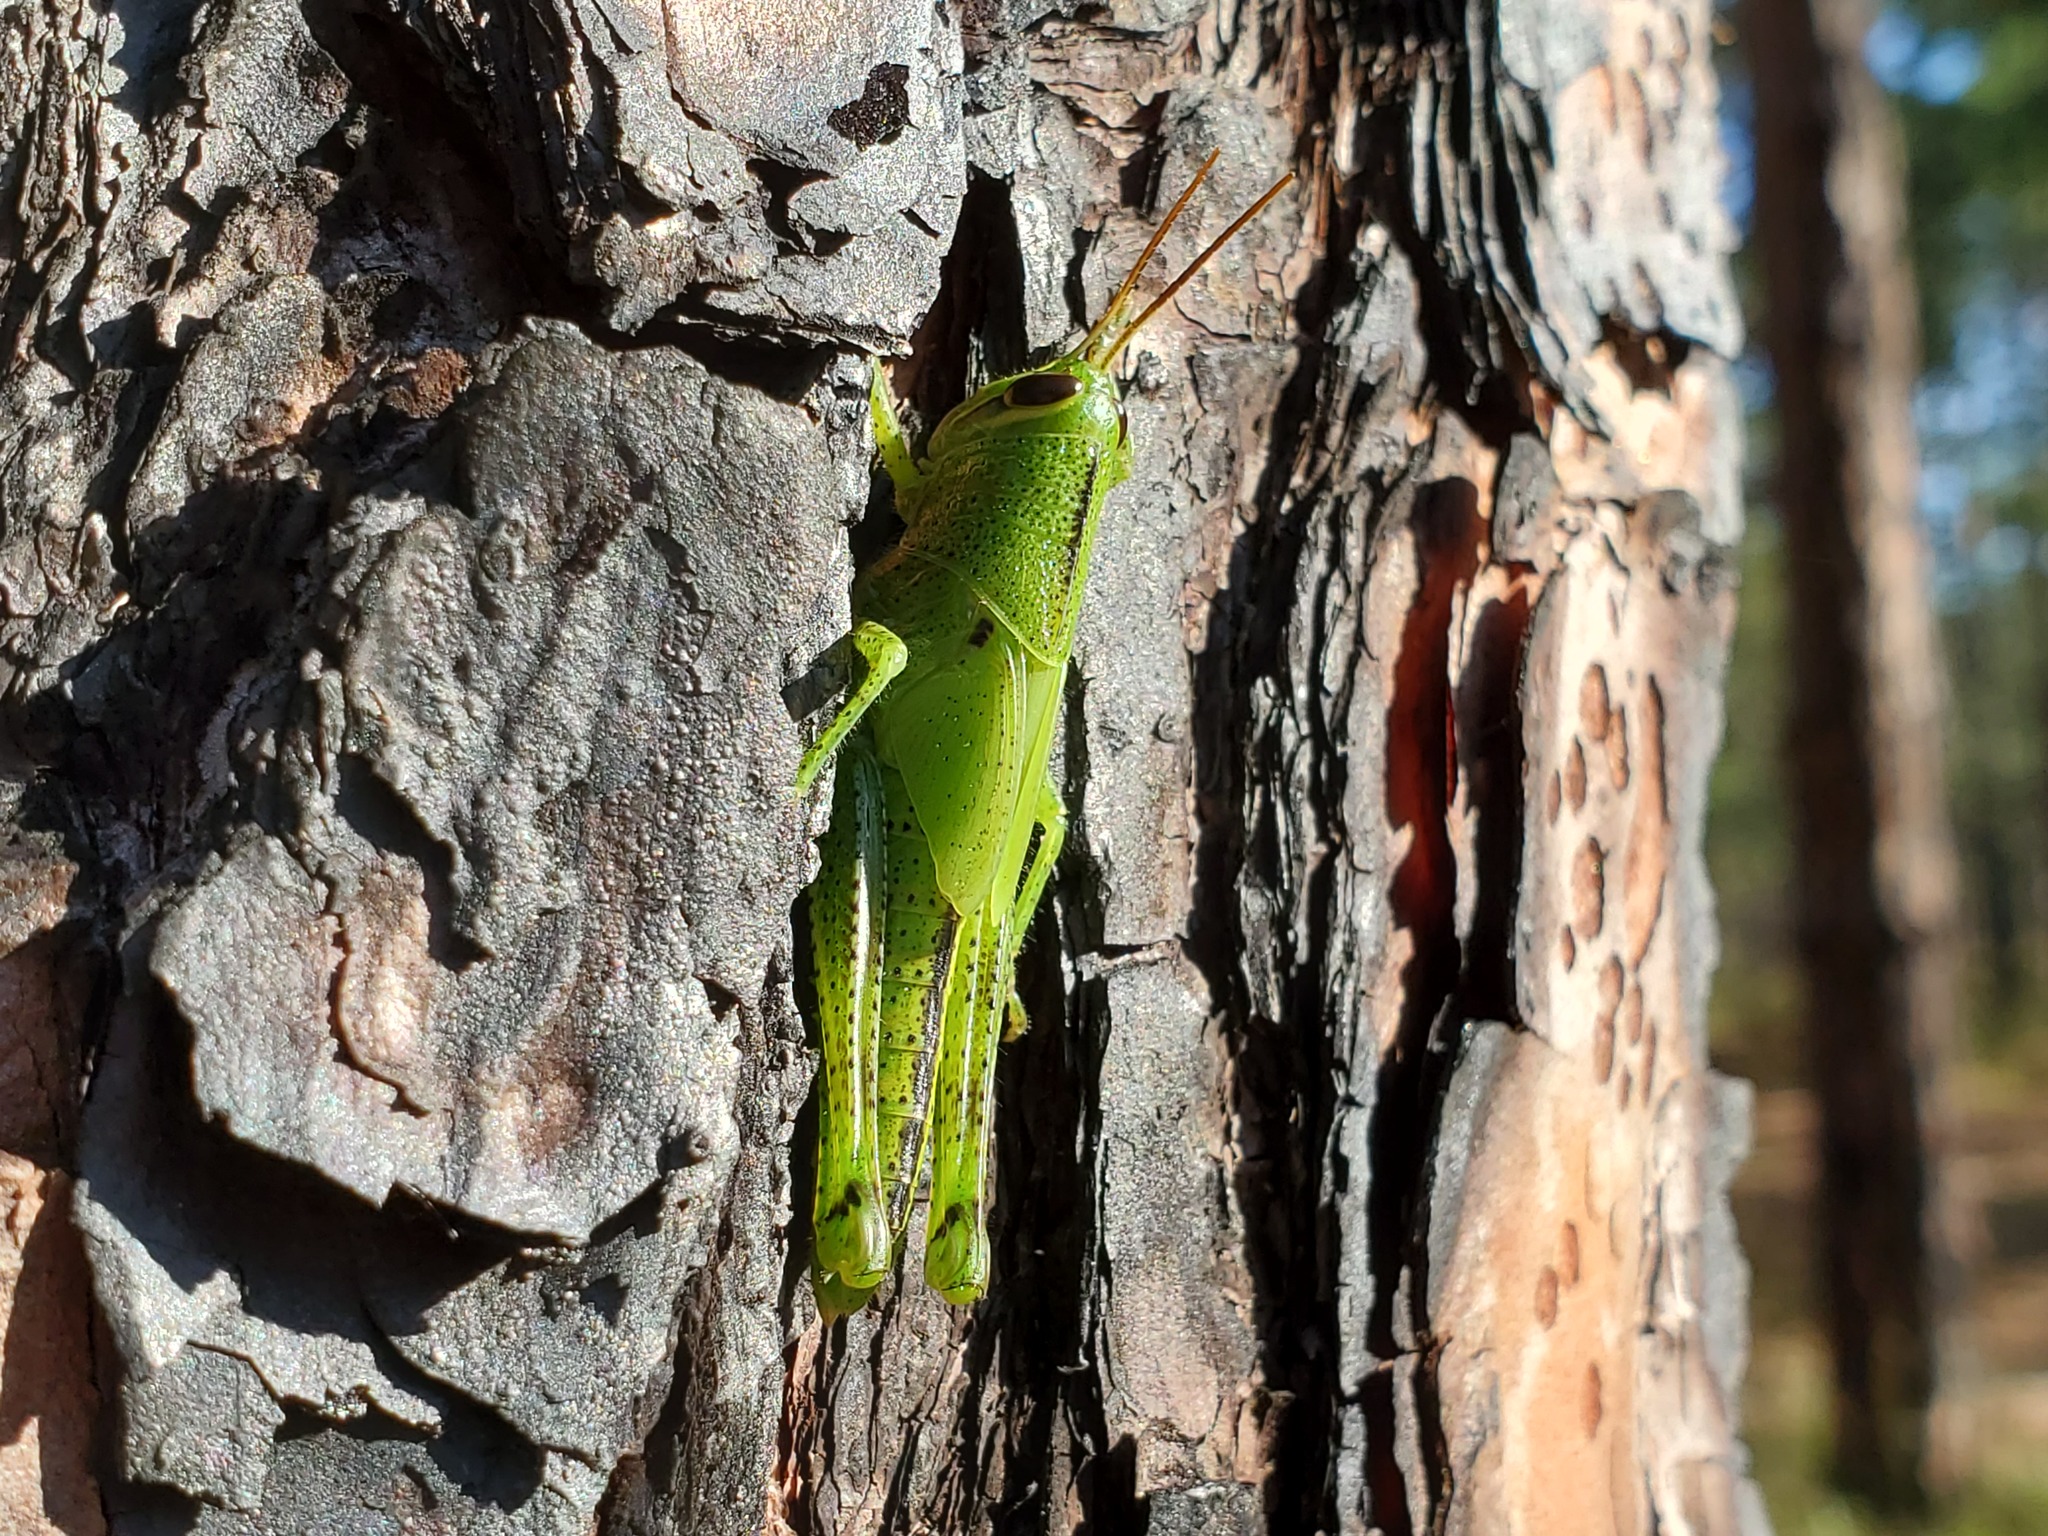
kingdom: Animalia
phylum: Arthropoda
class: Insecta
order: Orthoptera
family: Acrididae
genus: Schistocerca
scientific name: Schistocerca americana
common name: American bird locust
